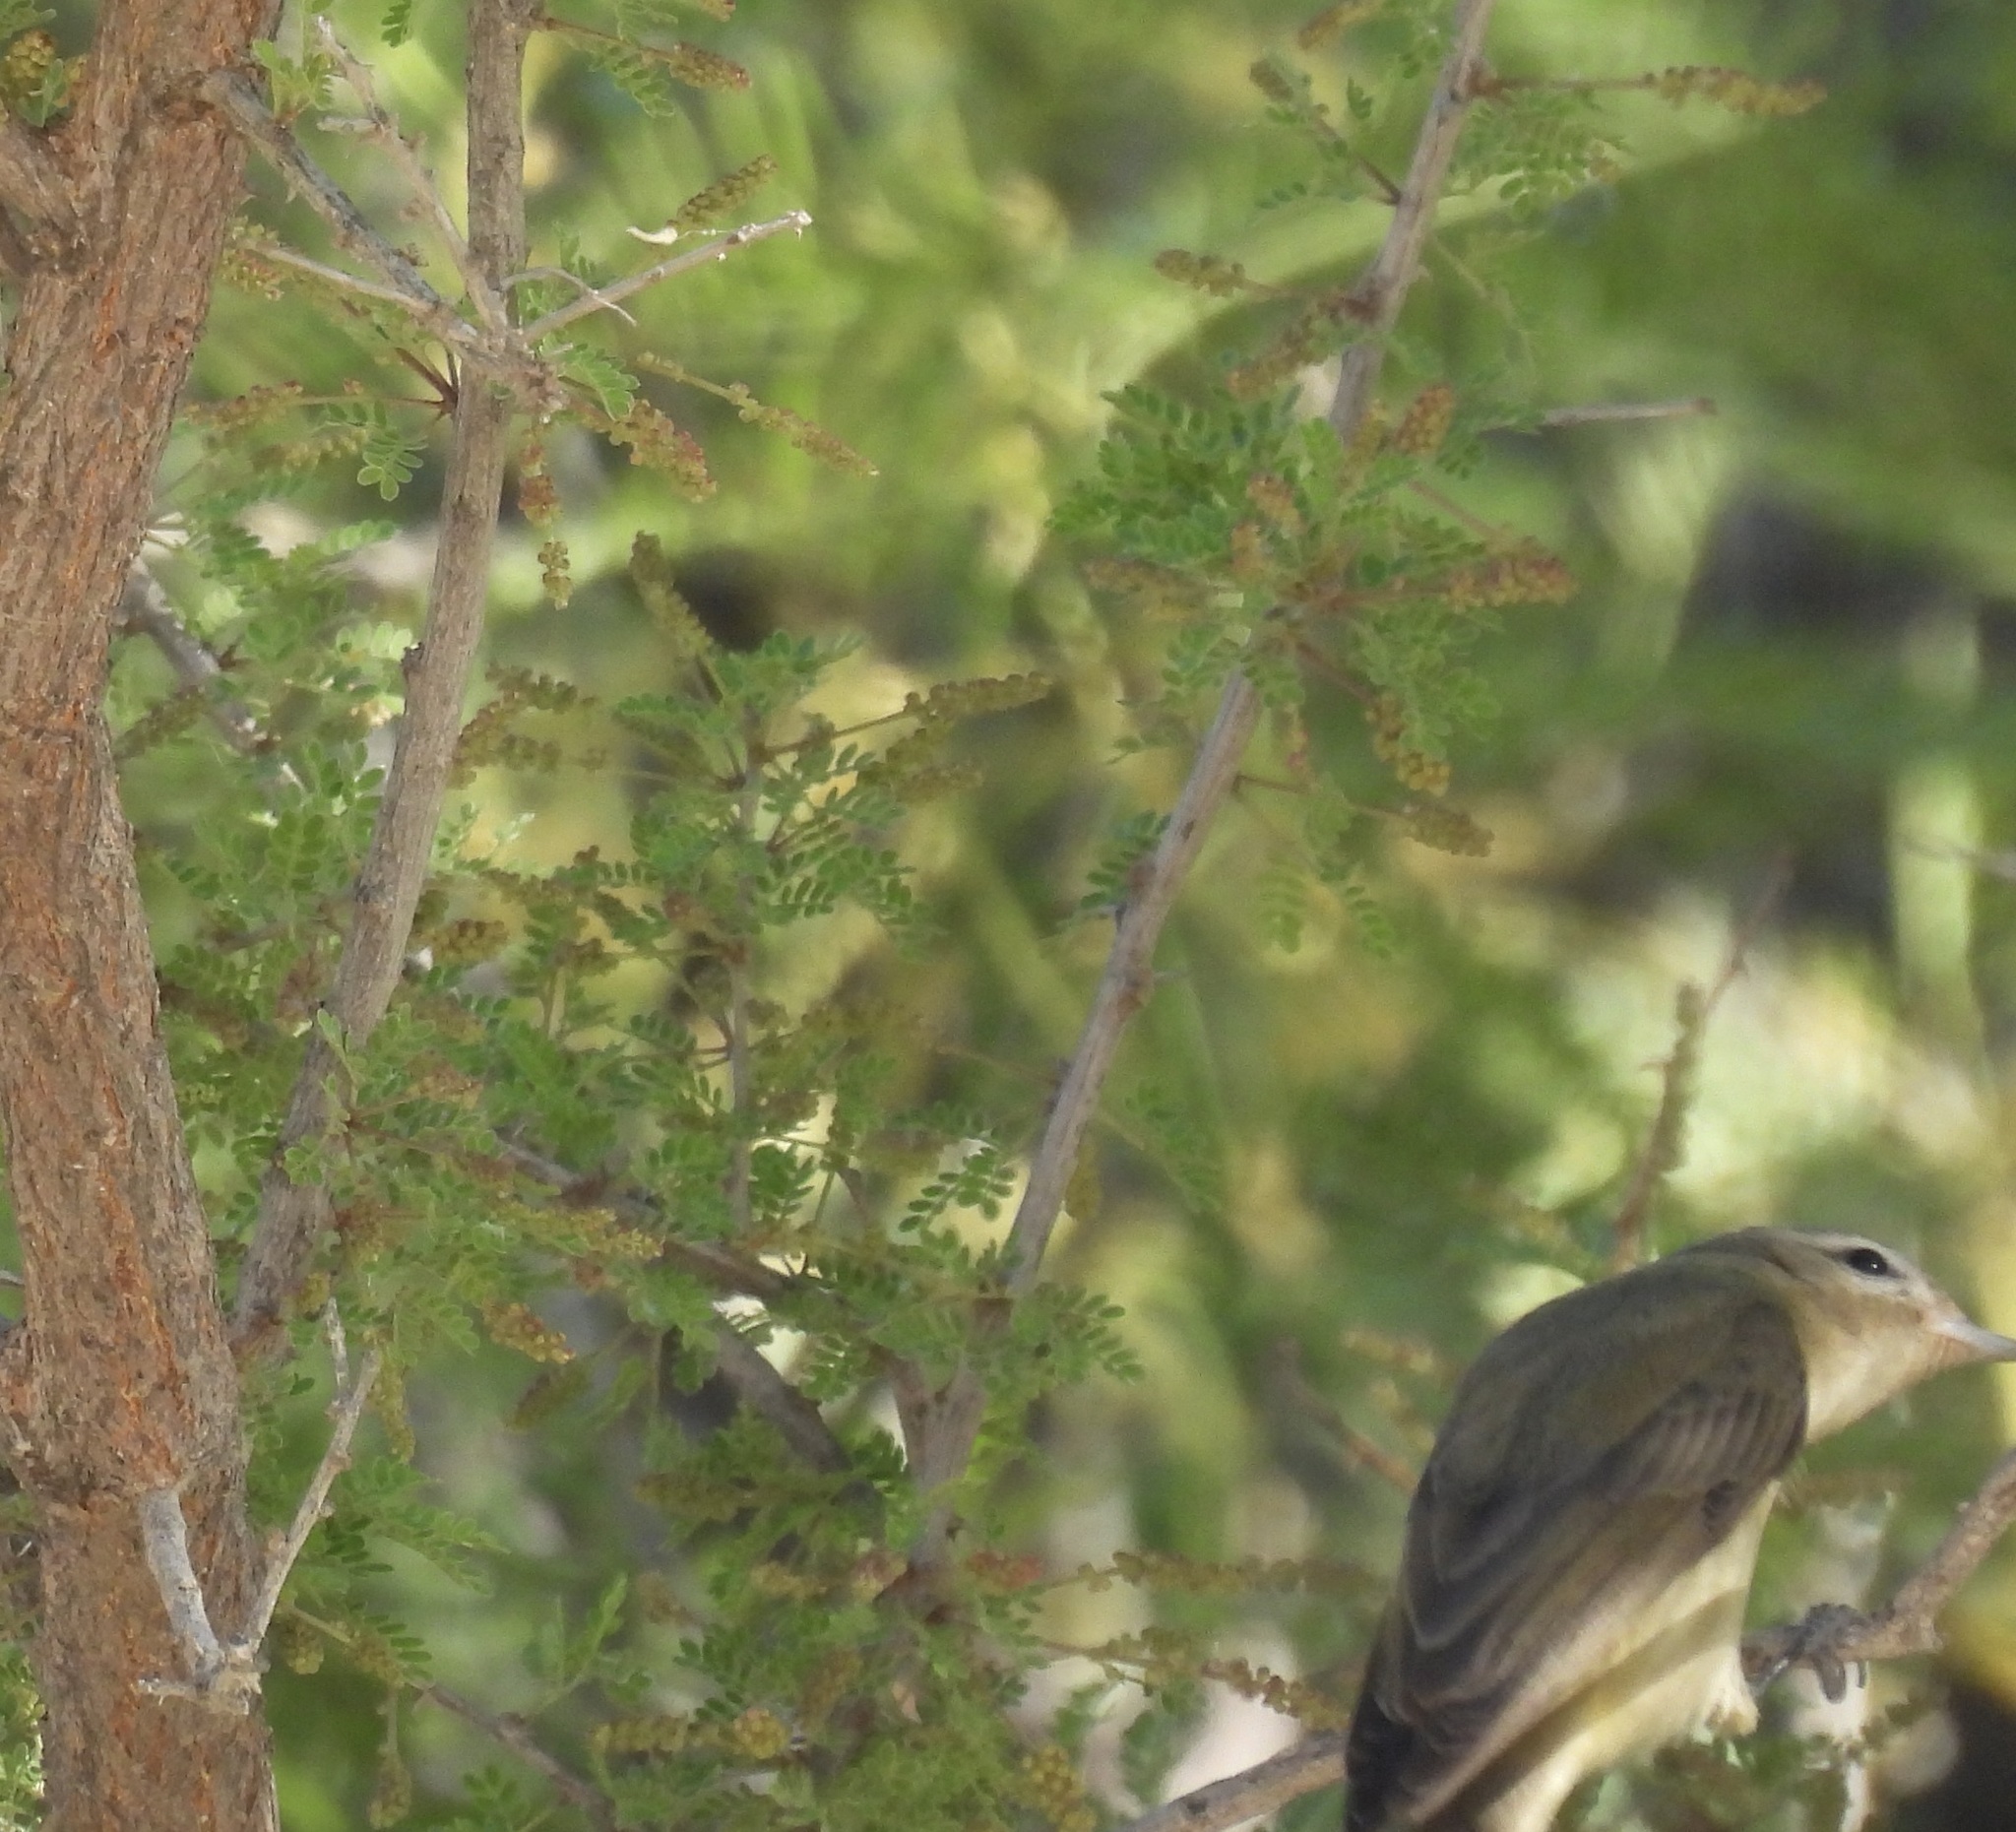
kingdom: Animalia
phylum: Chordata
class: Aves
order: Passeriformes
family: Vireonidae
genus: Vireo
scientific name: Vireo gilvus
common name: Warbling vireo
